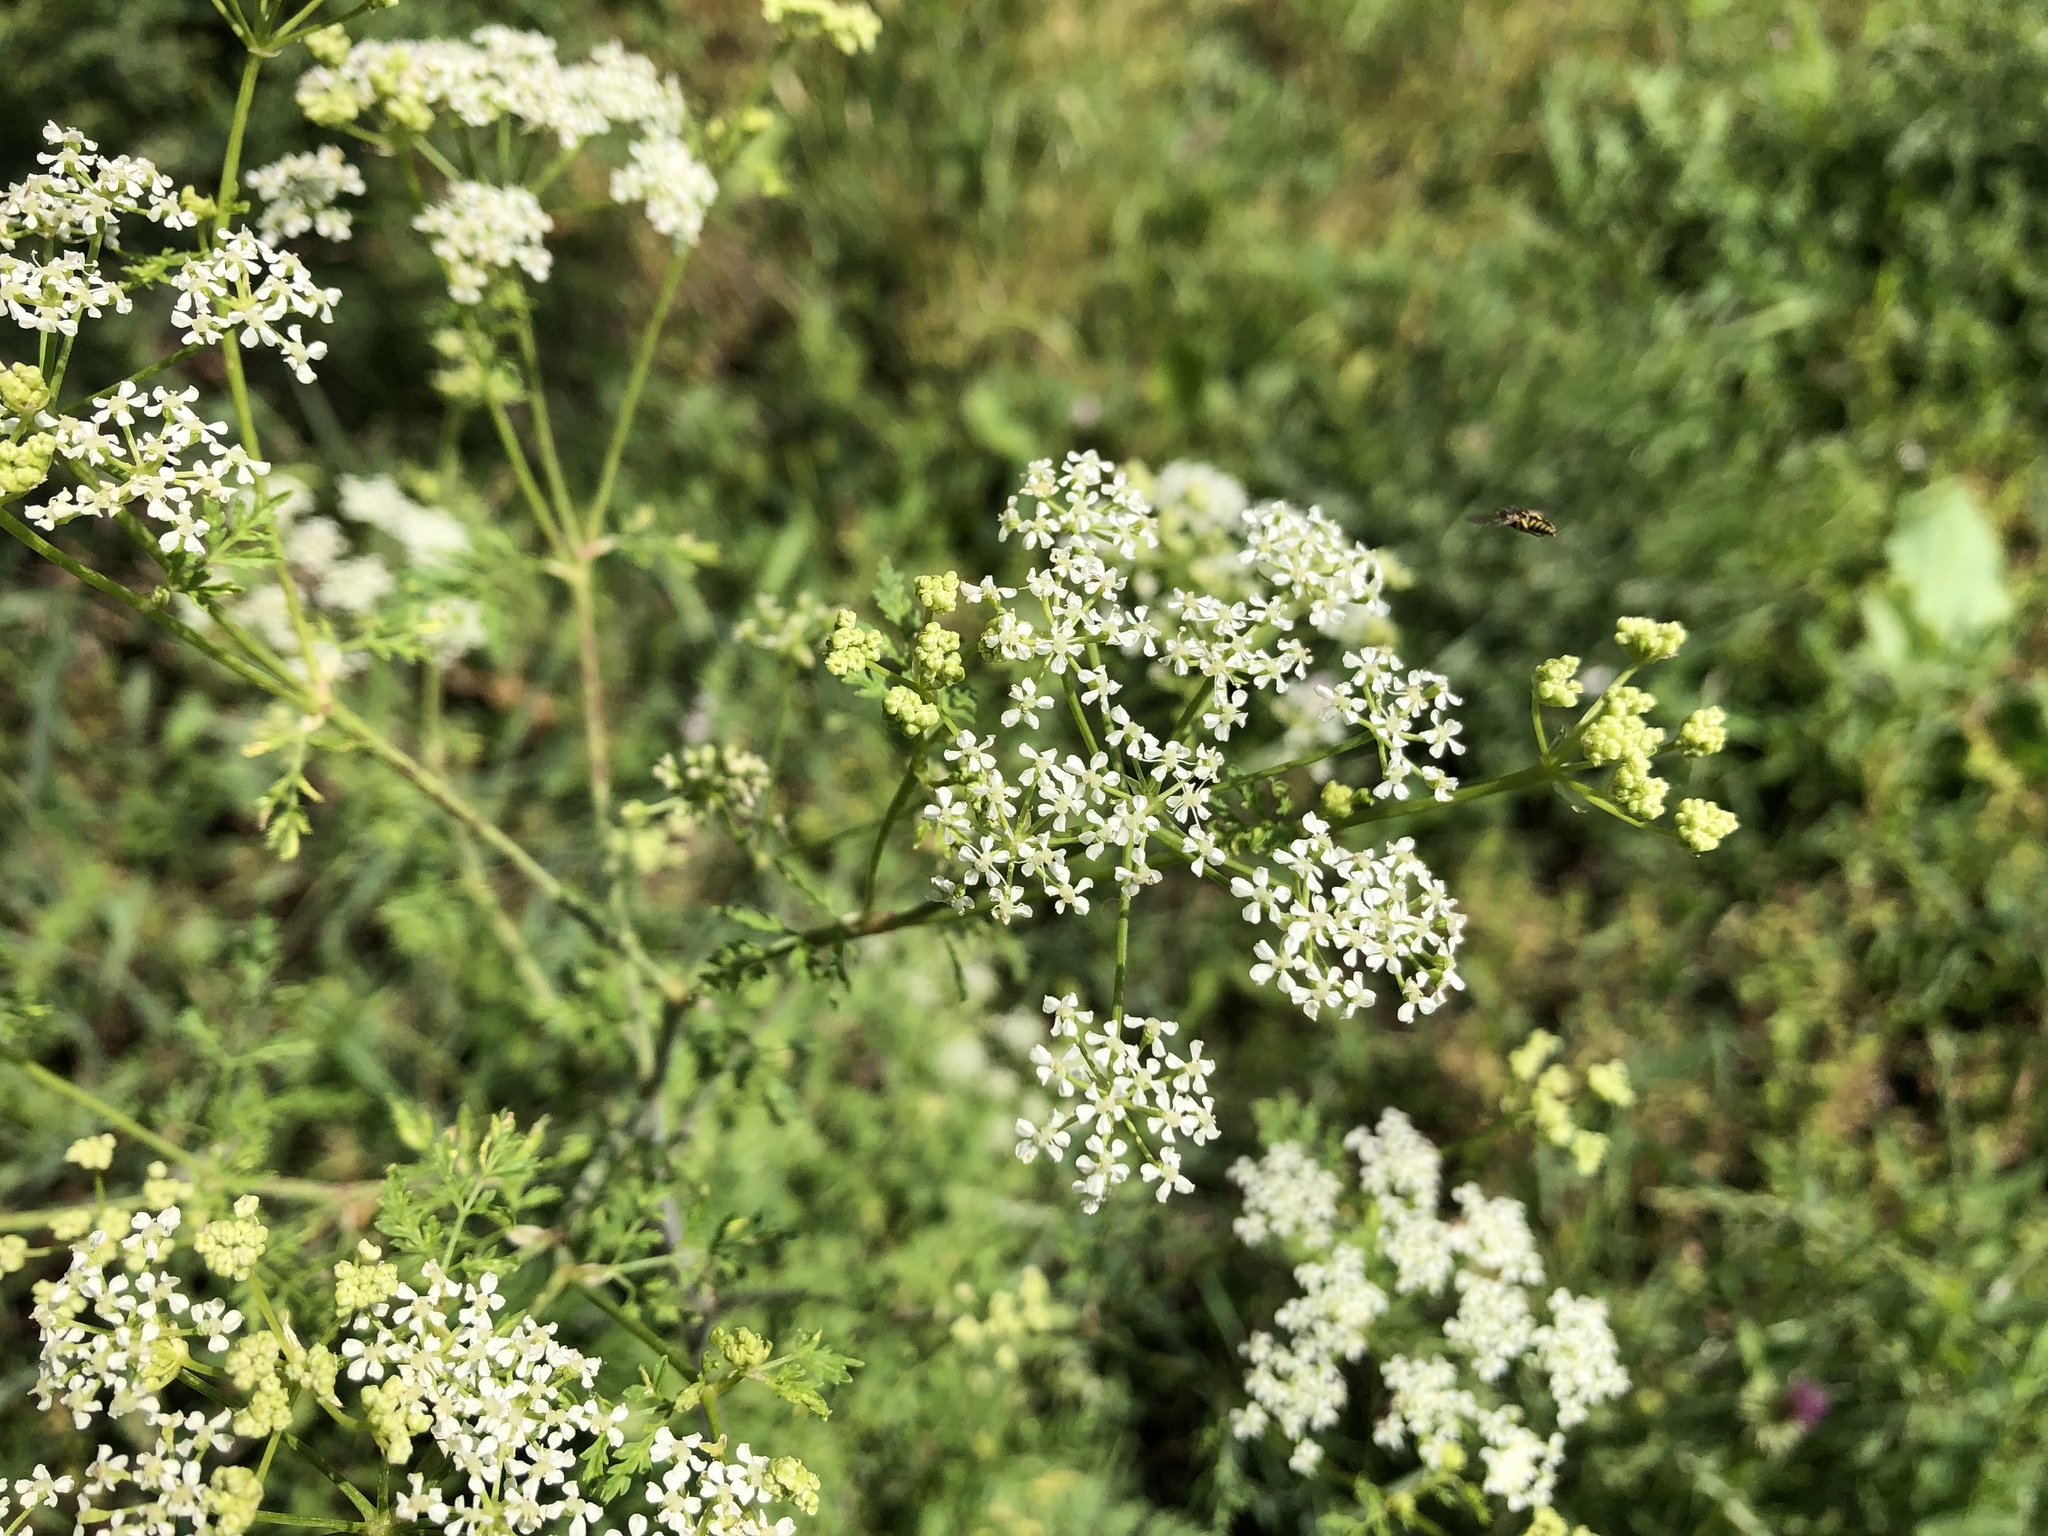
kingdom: Plantae
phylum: Tracheophyta
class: Magnoliopsida
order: Apiales
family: Apiaceae
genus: Conium
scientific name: Conium maculatum
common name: Hemlock
